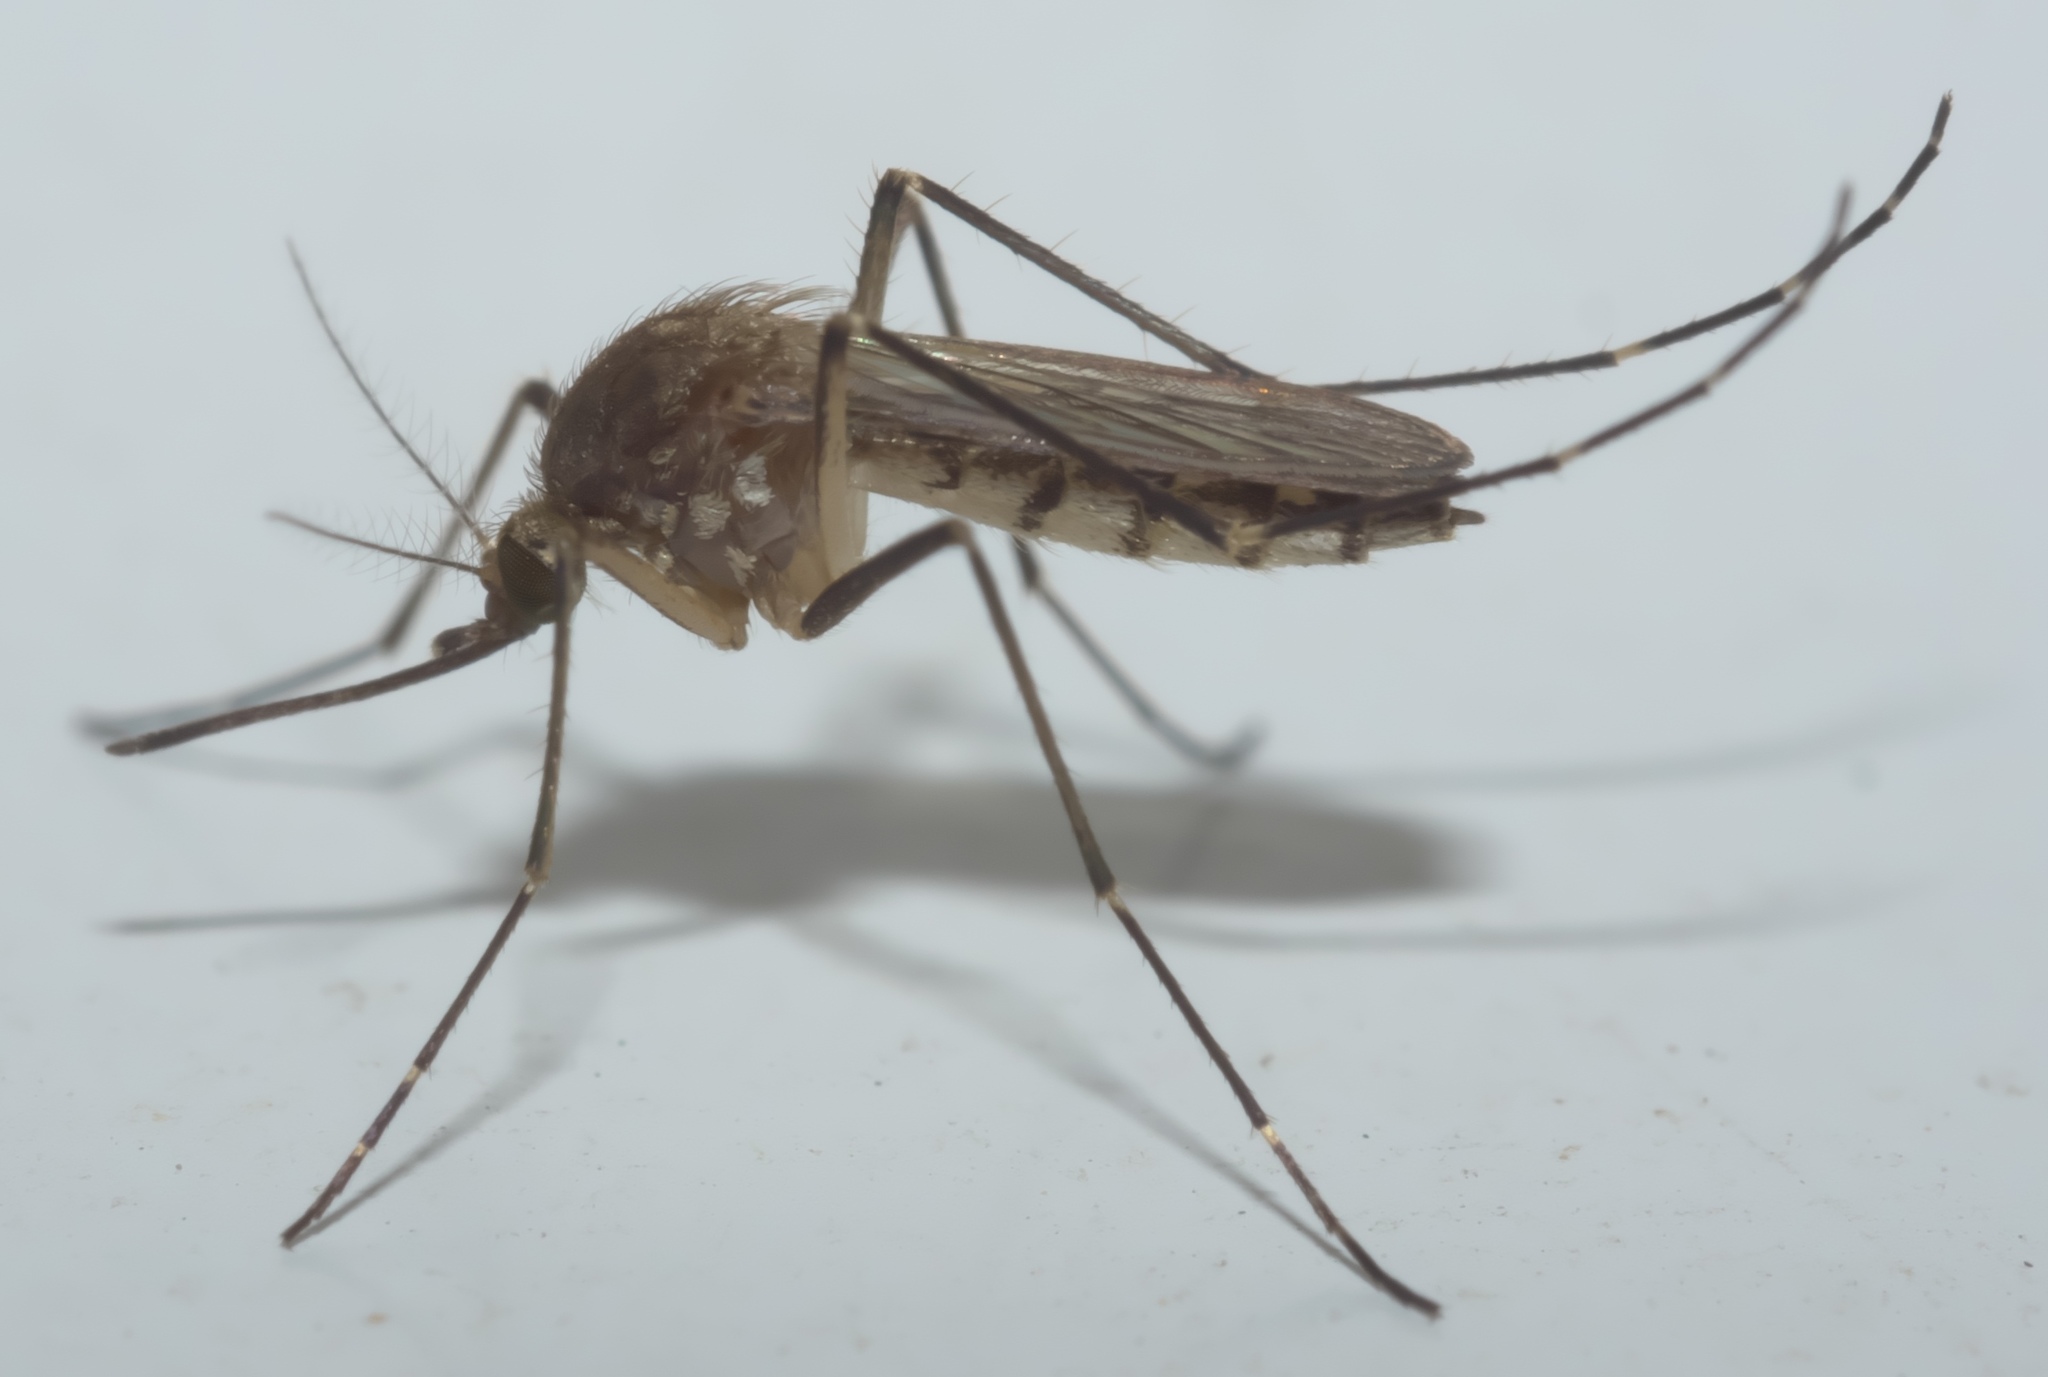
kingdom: Animalia
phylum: Arthropoda
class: Insecta
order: Diptera
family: Culicidae
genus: Aedes
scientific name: Aedes vexans
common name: Inland floodwater mosquito
